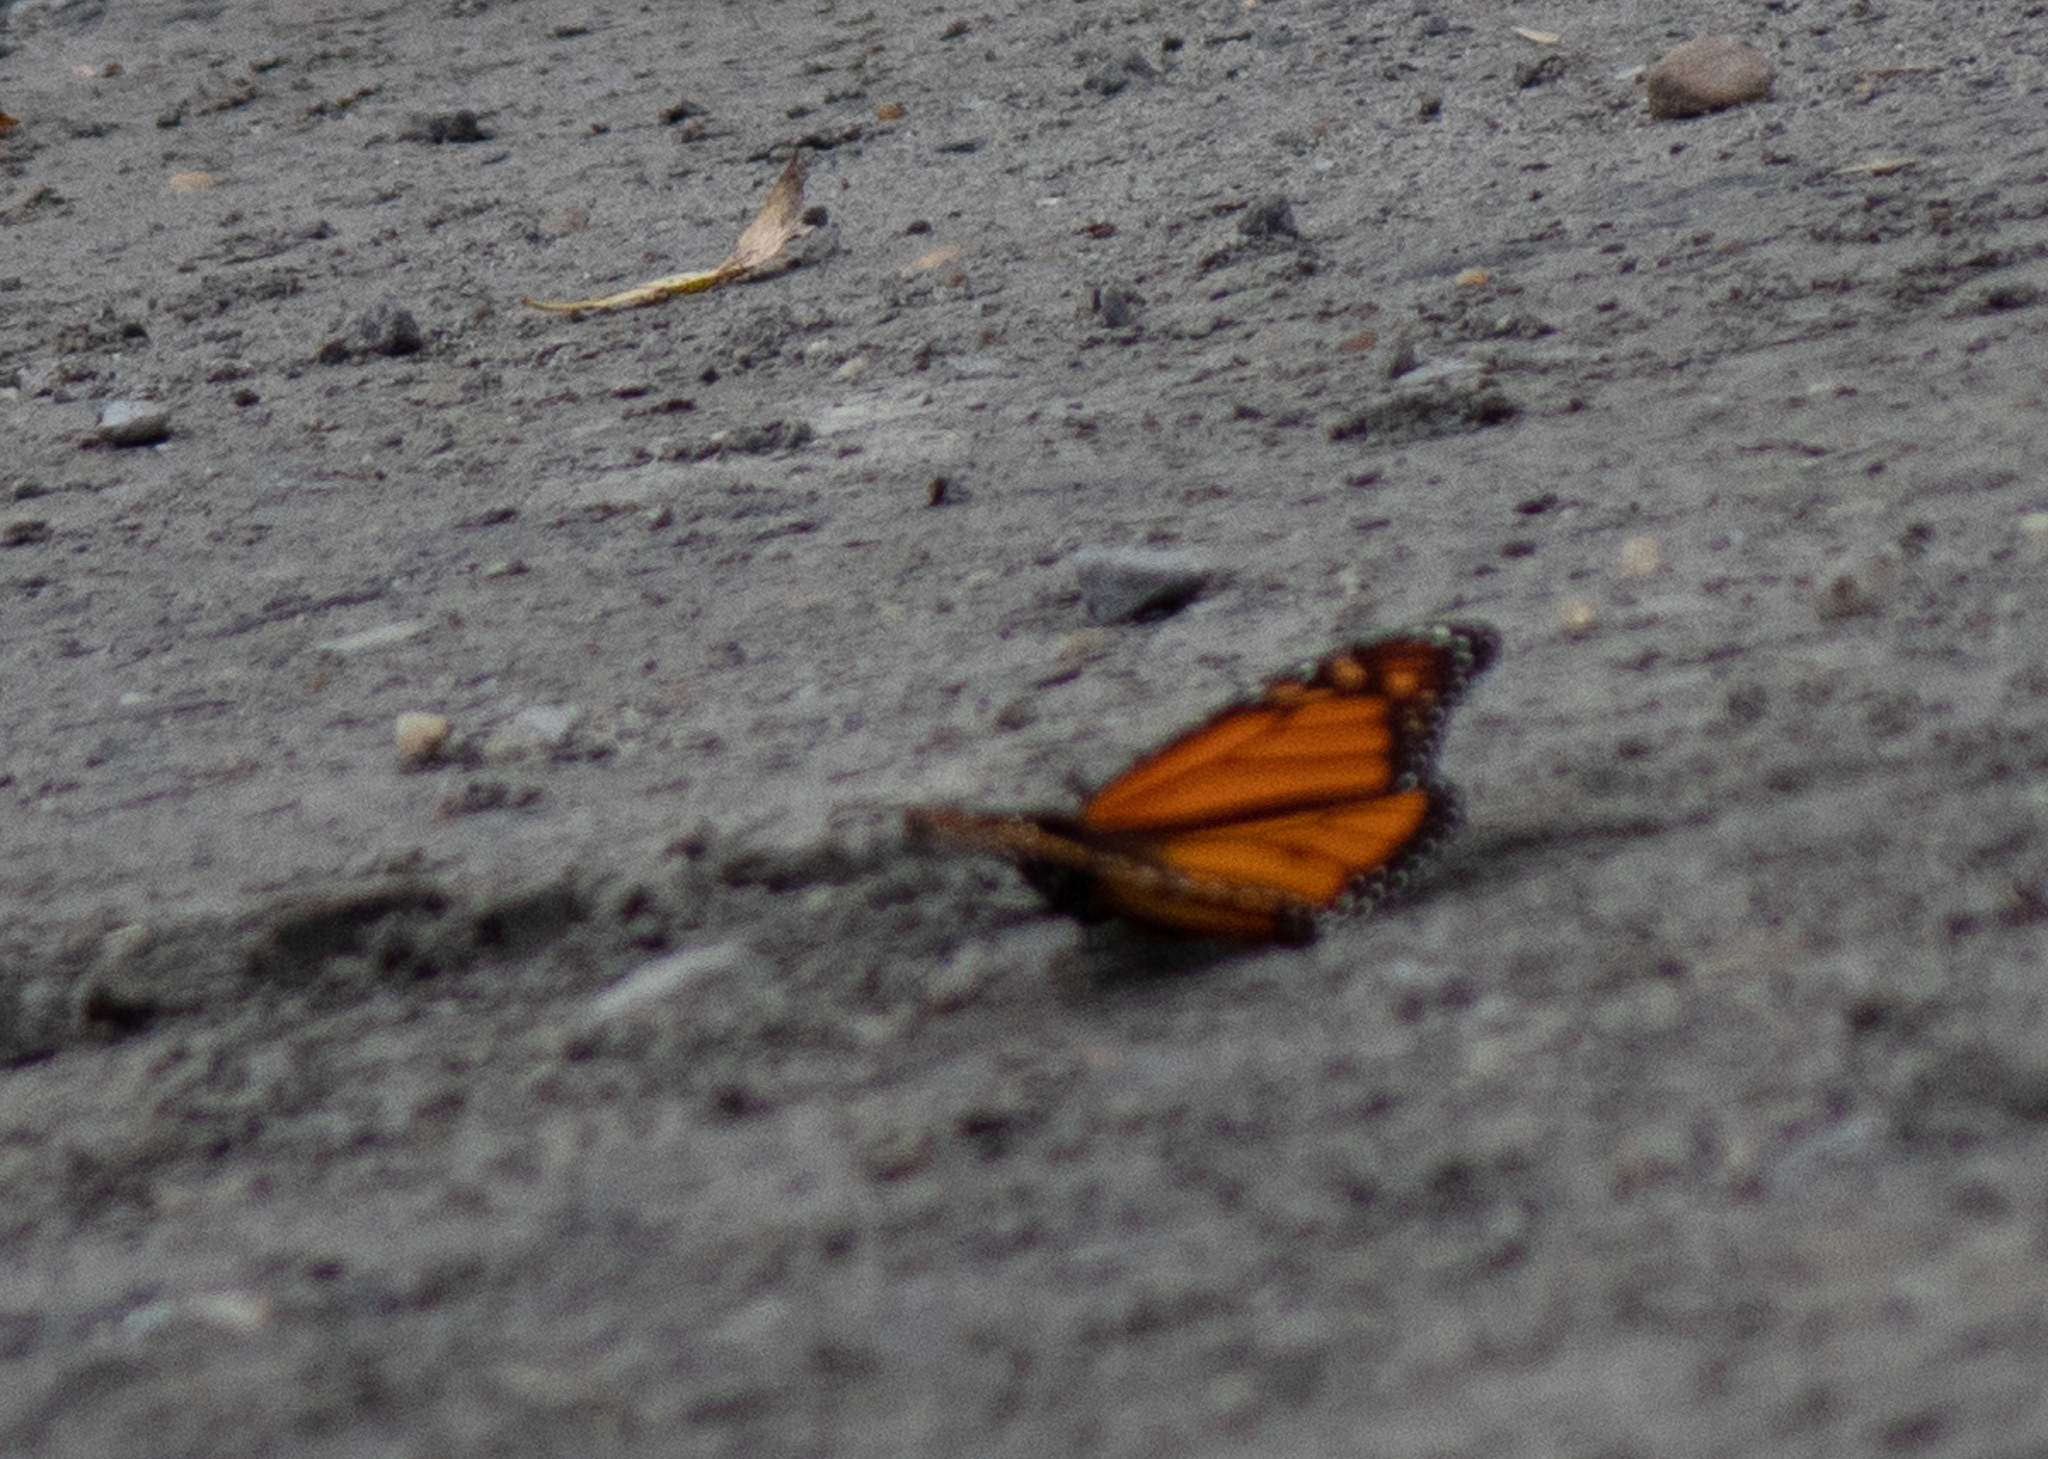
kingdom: Animalia
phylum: Arthropoda
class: Insecta
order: Lepidoptera
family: Nymphalidae
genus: Danaus
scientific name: Danaus plexippus
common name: Monarch
